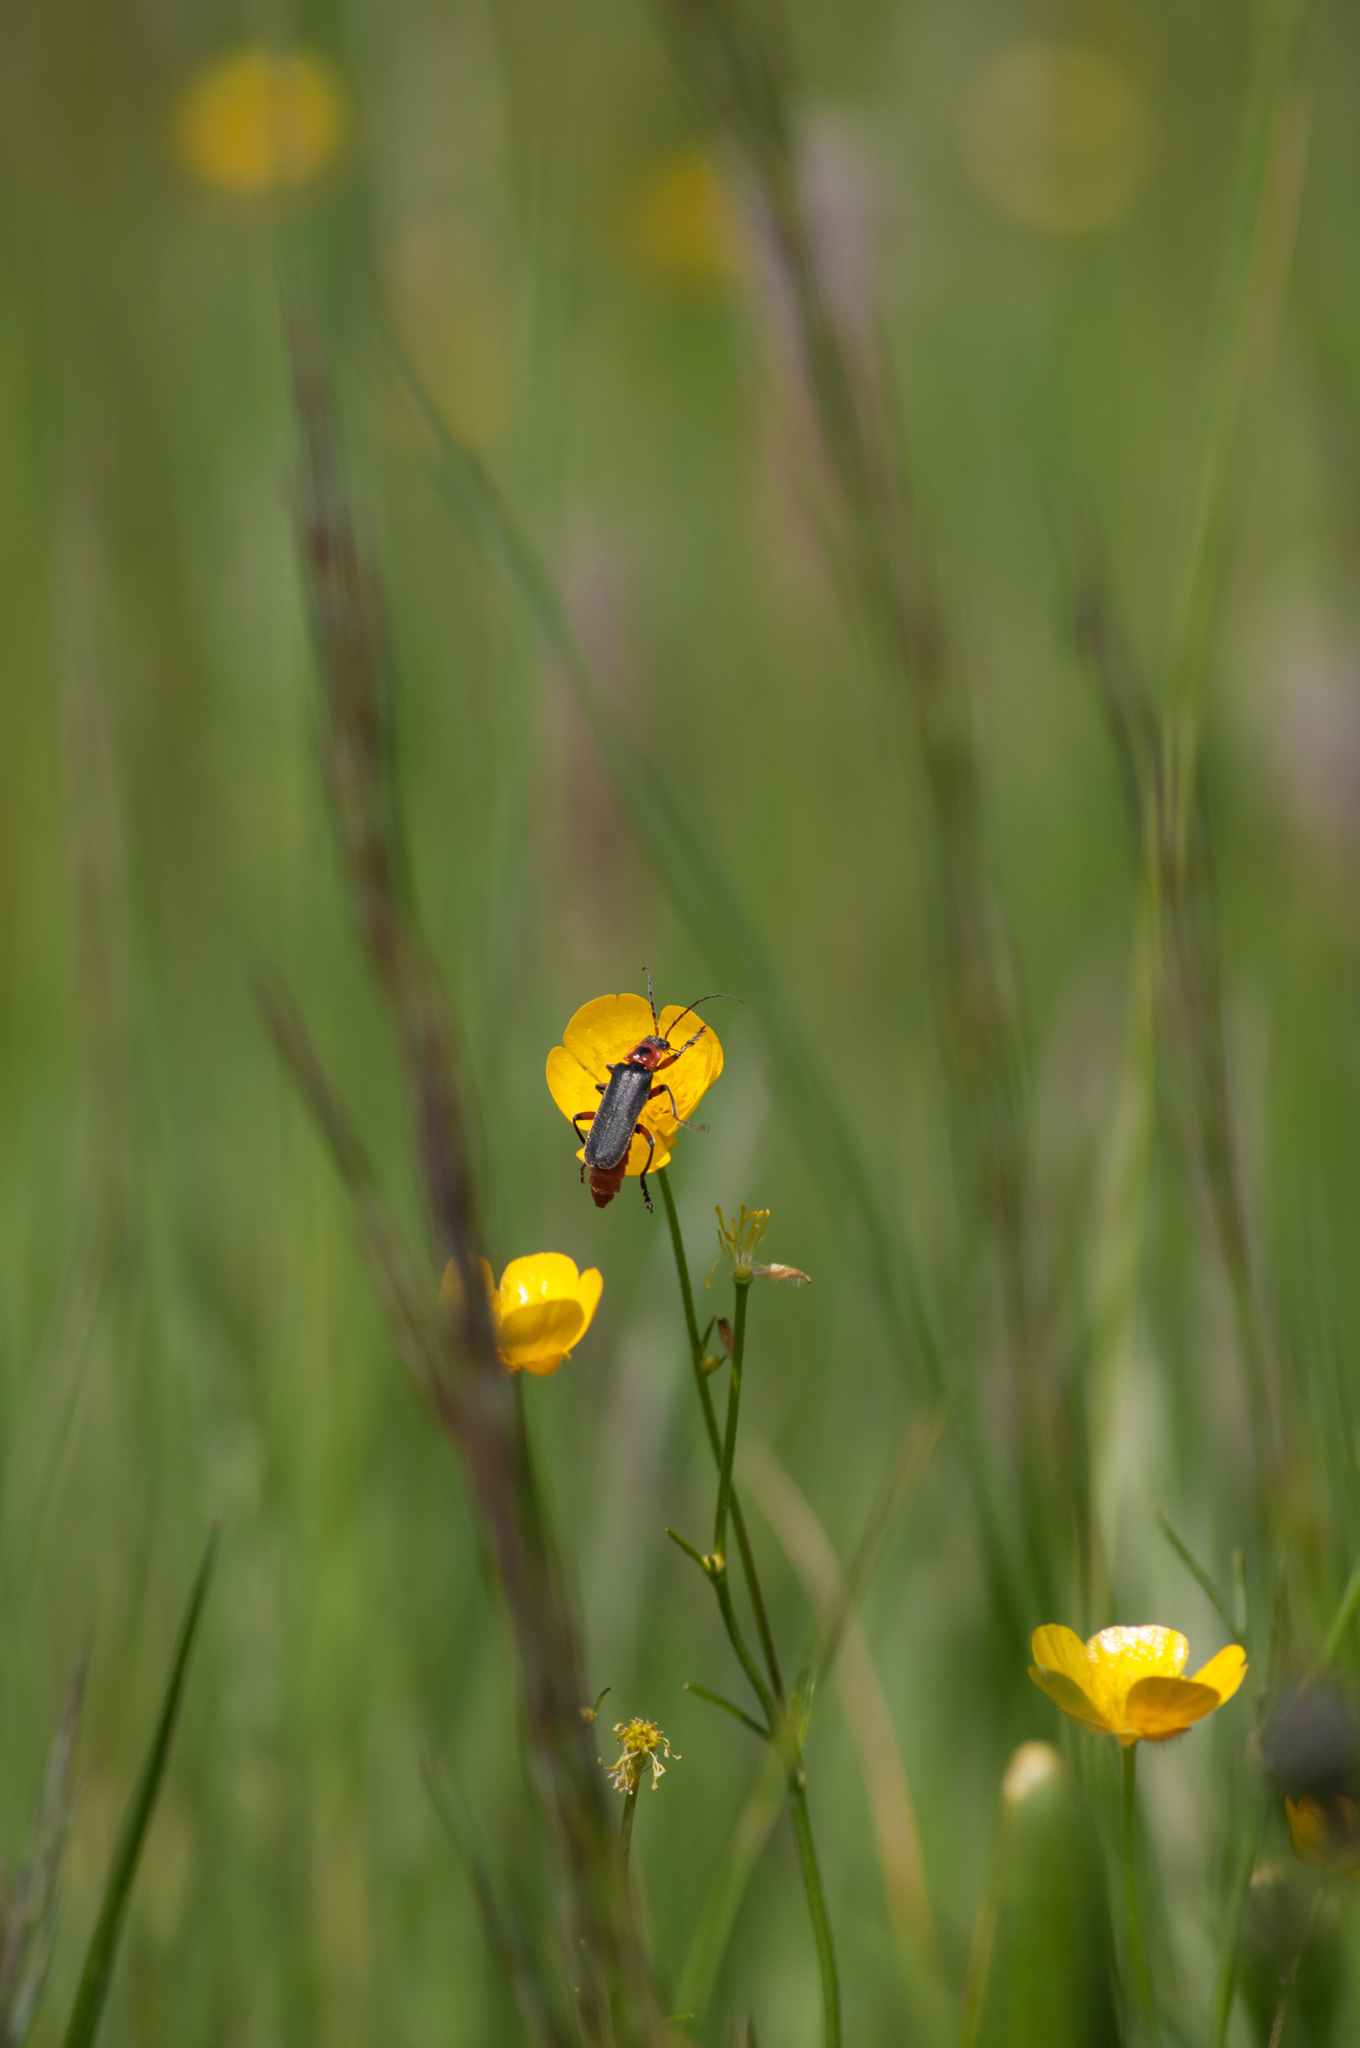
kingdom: Animalia
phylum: Arthropoda
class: Insecta
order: Coleoptera
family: Cantharidae
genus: Cantharis
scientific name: Cantharis rustica
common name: Soldier beetle
